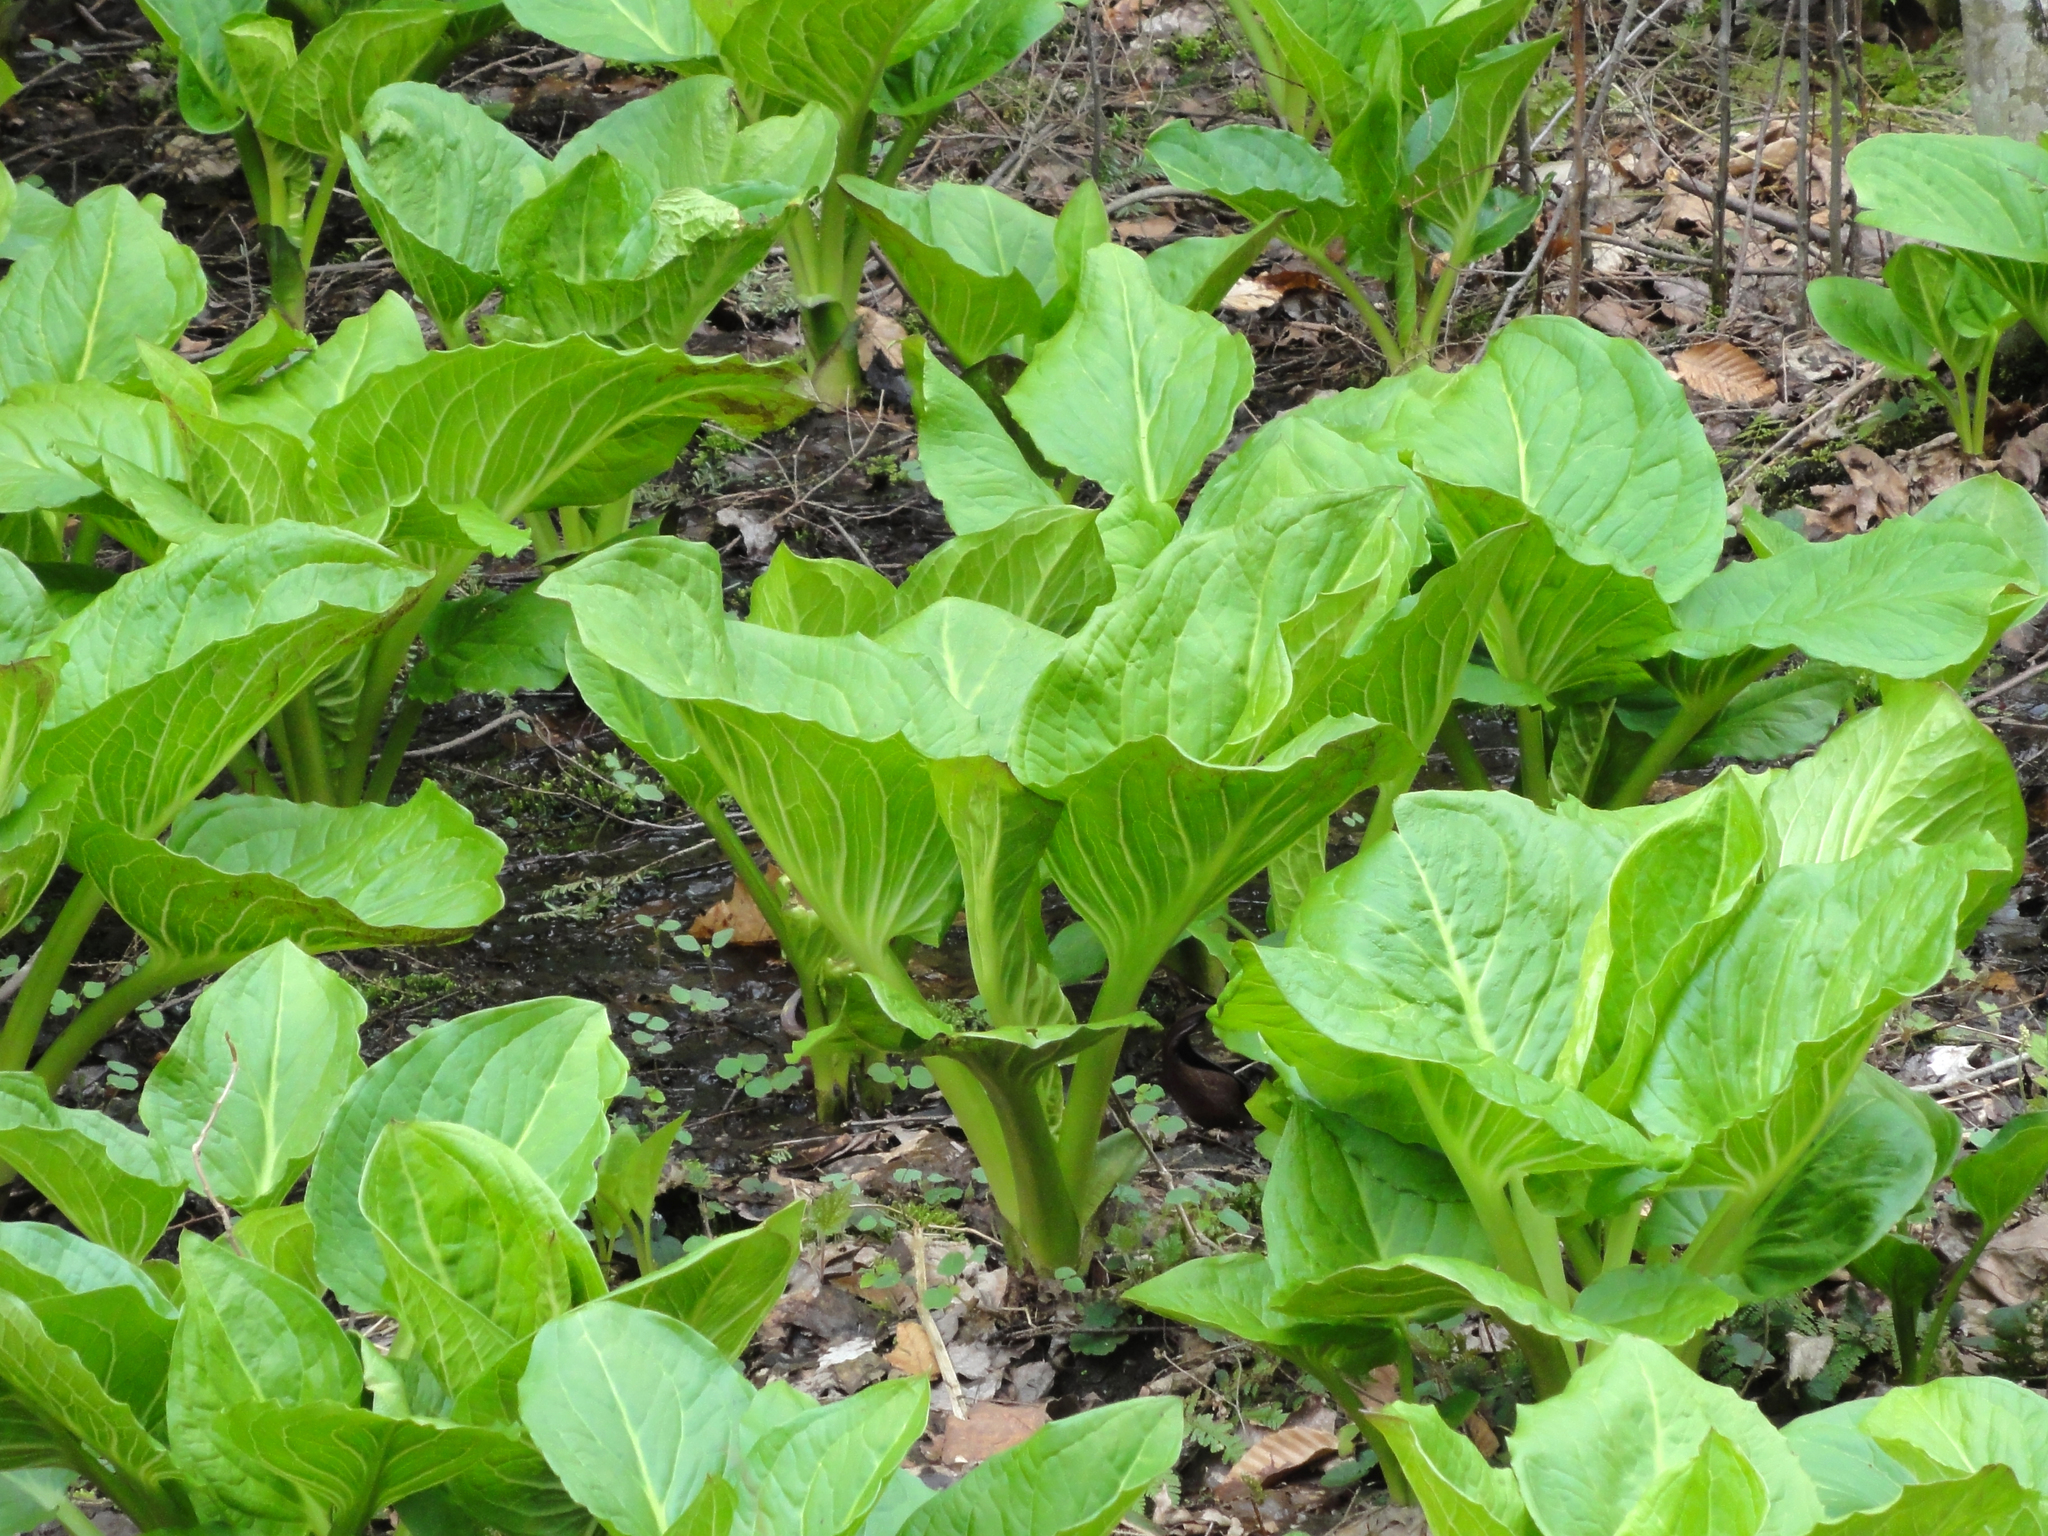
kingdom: Plantae
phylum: Tracheophyta
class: Liliopsida
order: Alismatales
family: Araceae
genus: Symplocarpus
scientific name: Symplocarpus foetidus
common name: Eastern skunk cabbage
